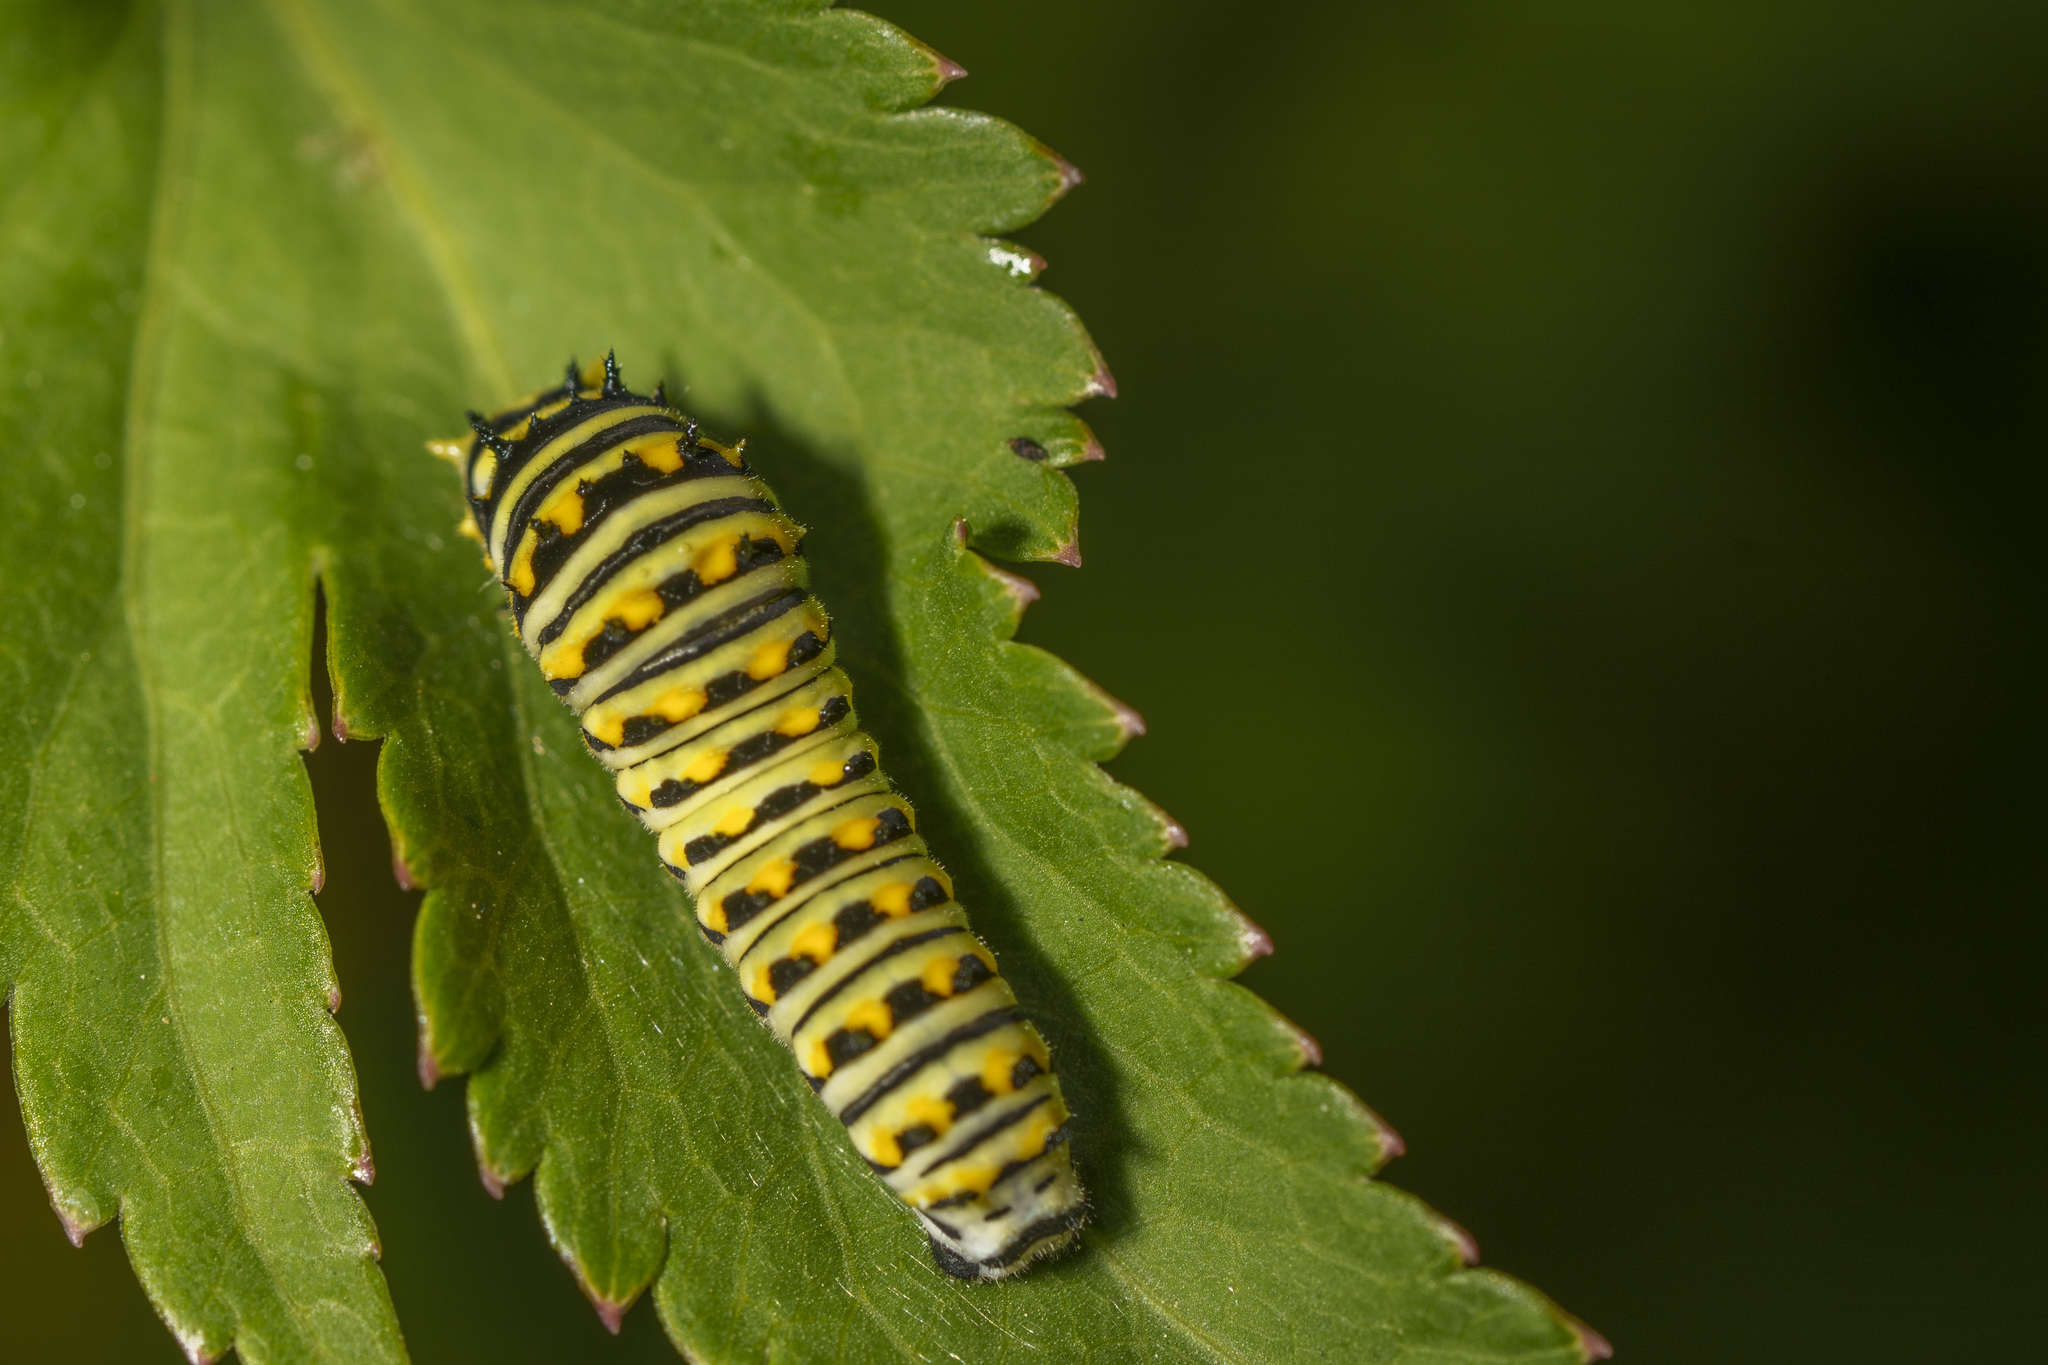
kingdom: Animalia
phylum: Arthropoda
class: Insecta
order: Lepidoptera
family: Papilionidae
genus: Papilio
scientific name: Papilio polyxenes
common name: Black swallowtail
